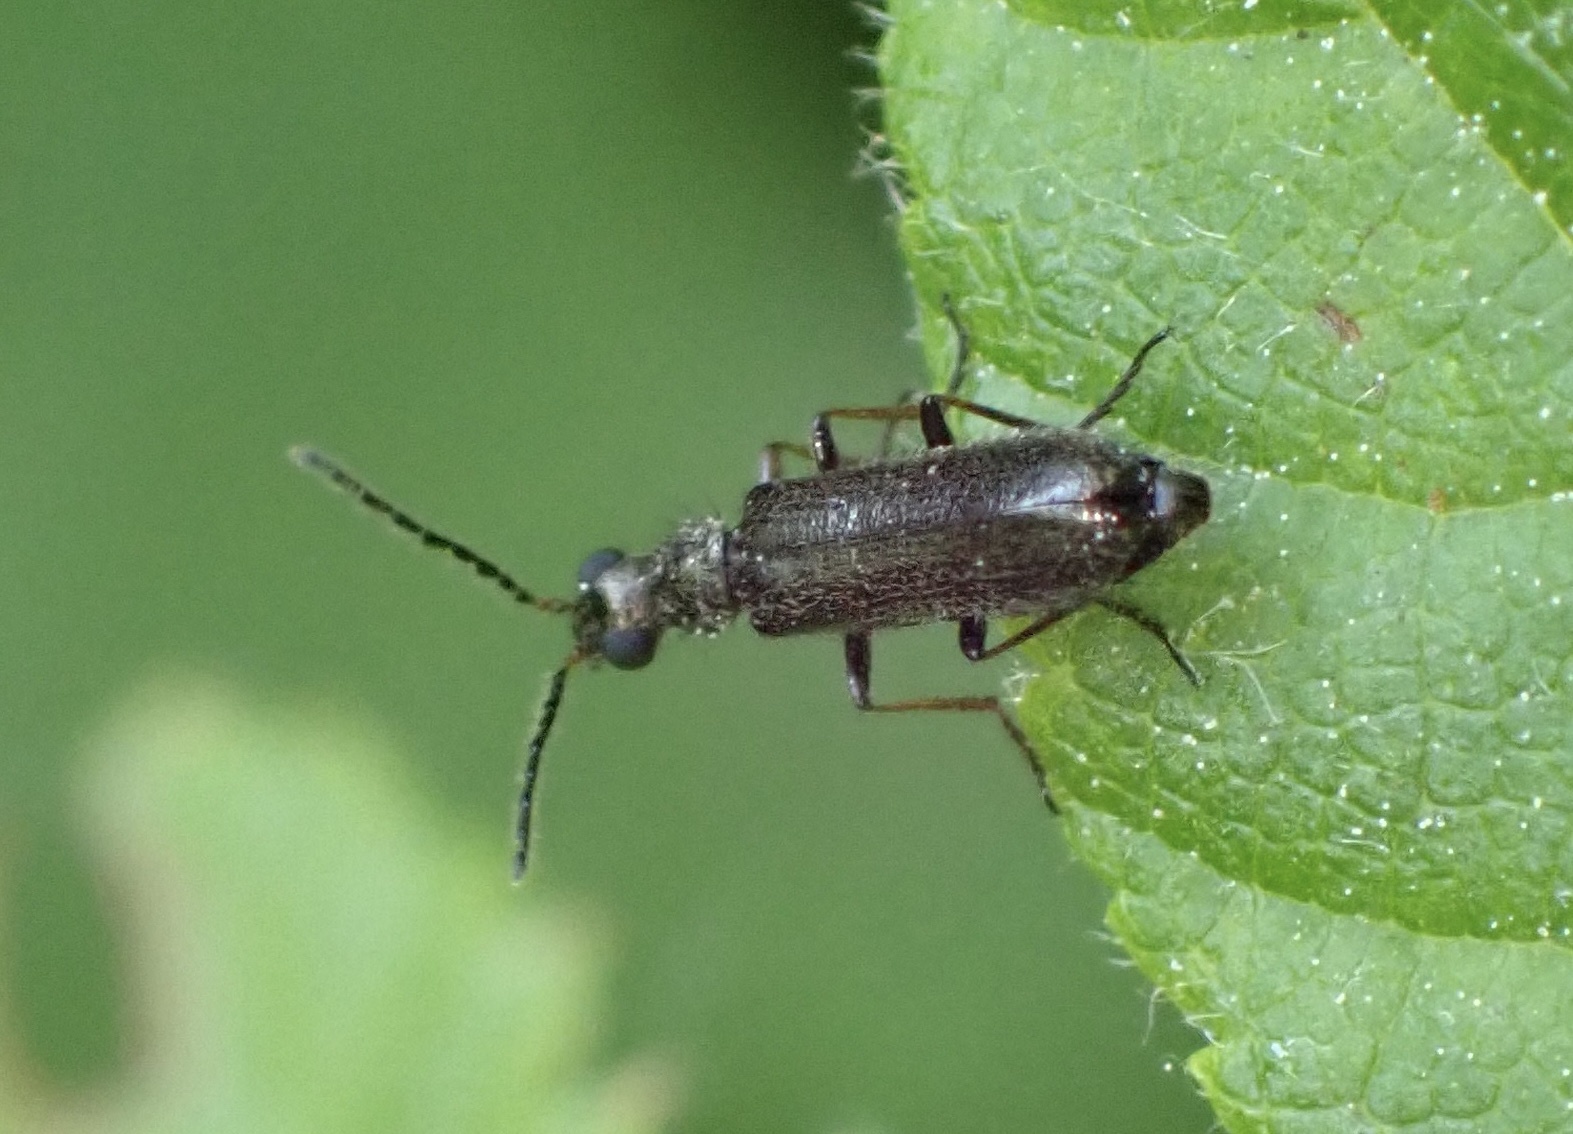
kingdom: Animalia
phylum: Arthropoda
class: Insecta
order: Coleoptera
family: Melyridae
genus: Dasytes
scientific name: Dasytes plumbeus
